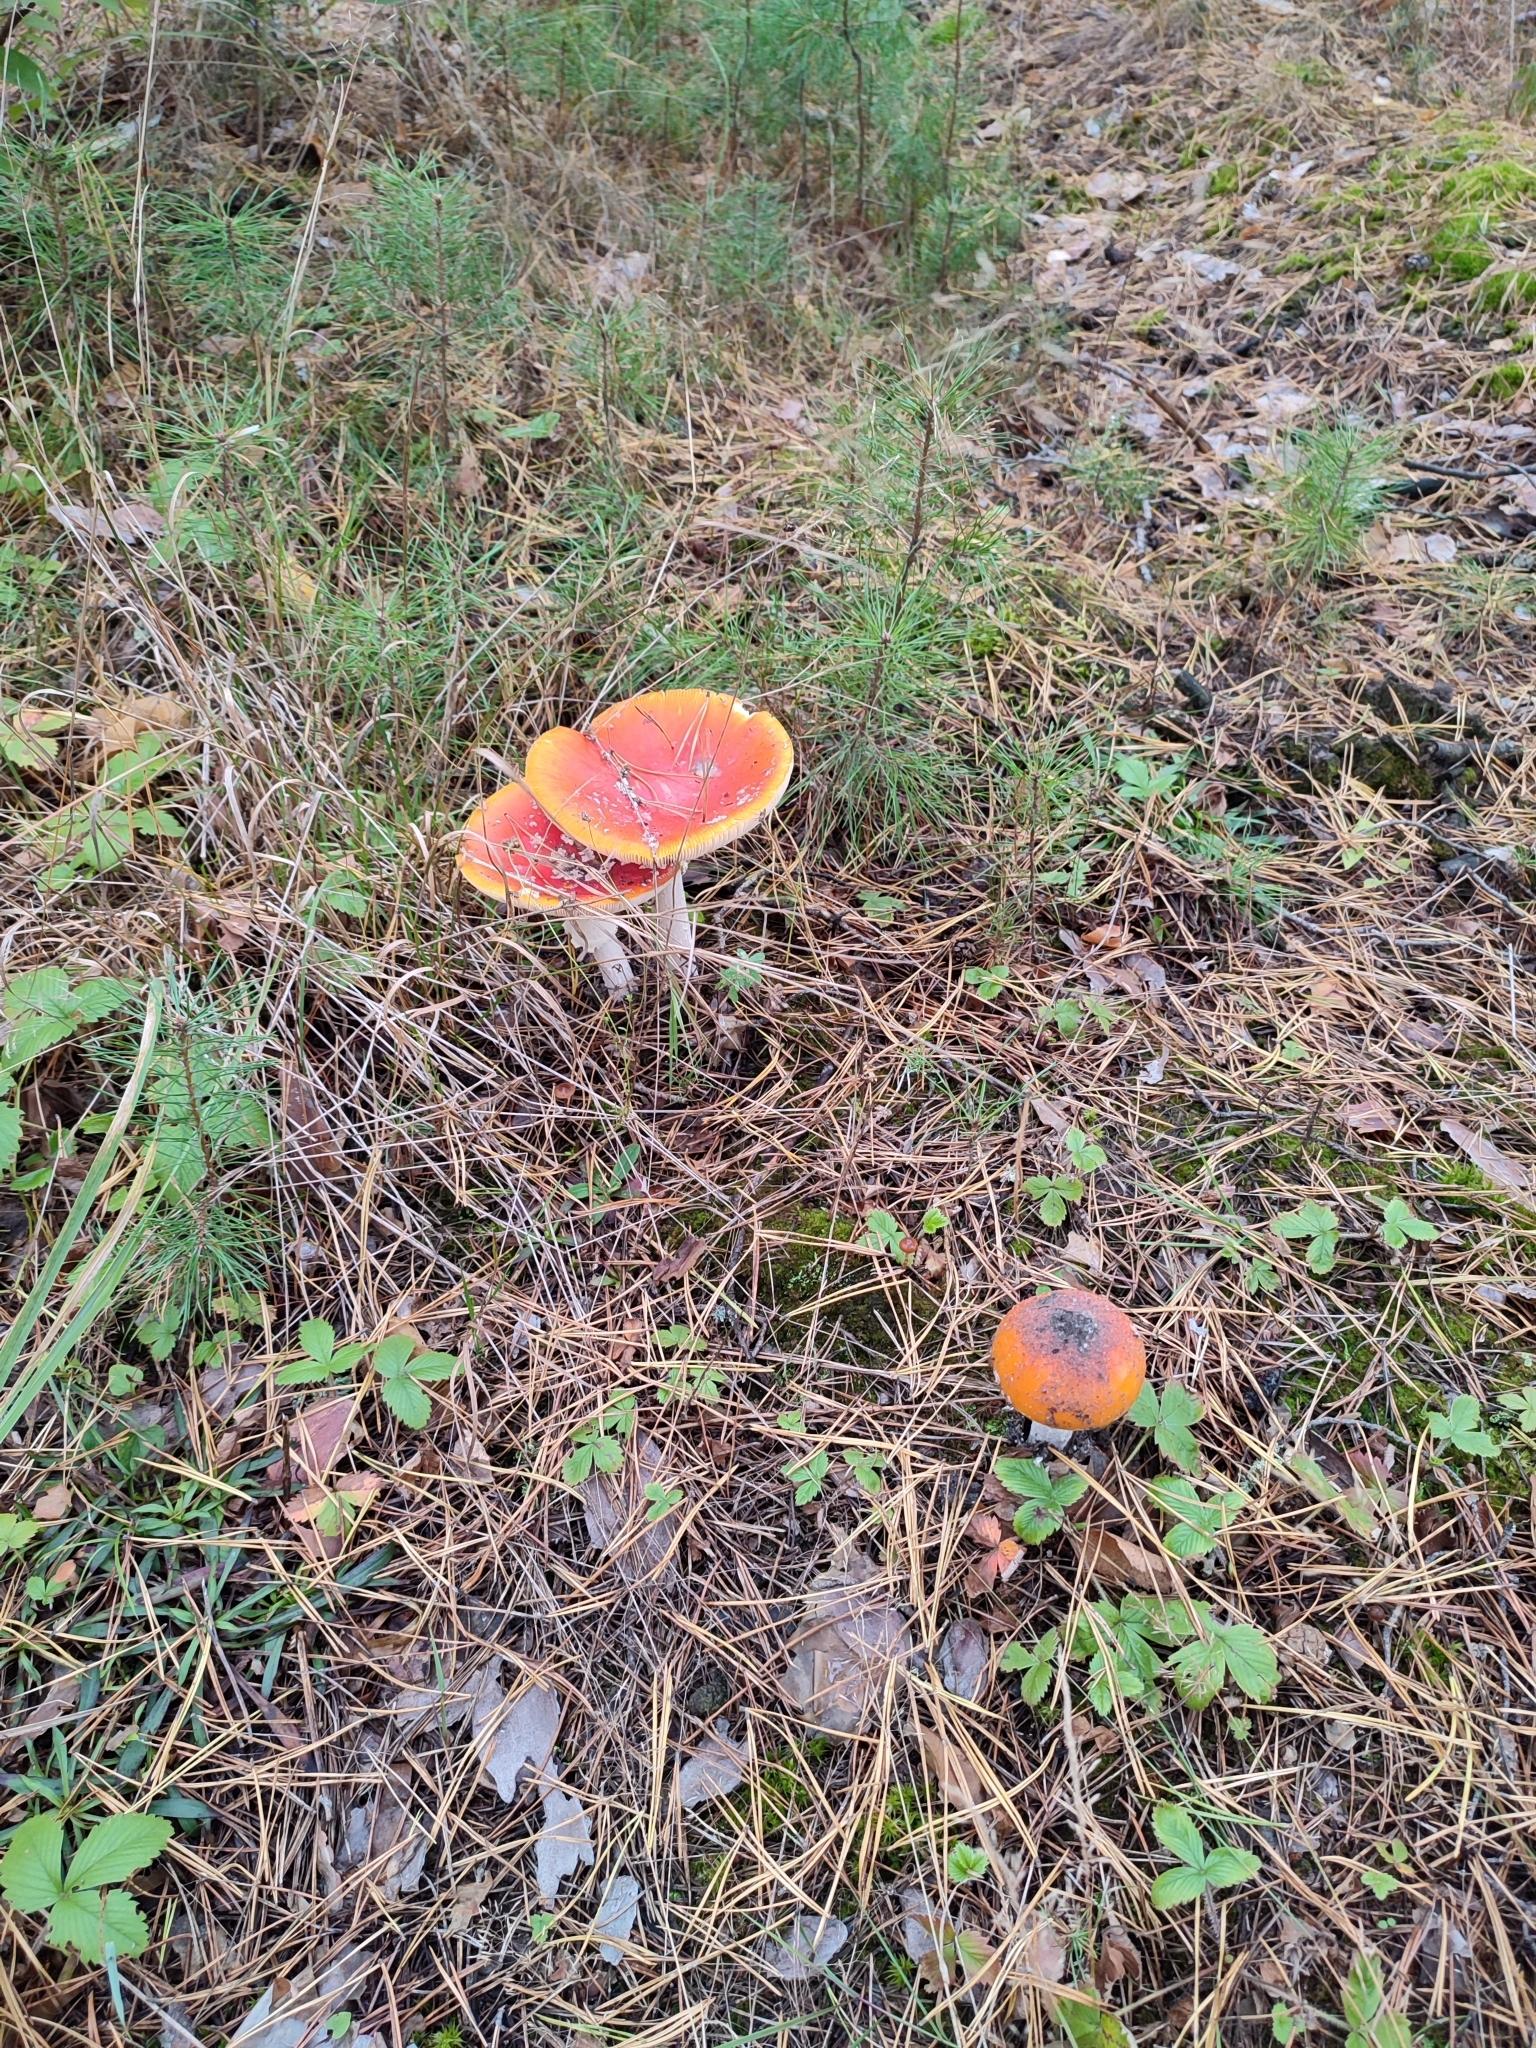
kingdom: Fungi
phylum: Basidiomycota
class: Agaricomycetes
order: Agaricales
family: Amanitaceae
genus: Amanita
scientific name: Amanita muscaria
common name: Fly agaric
